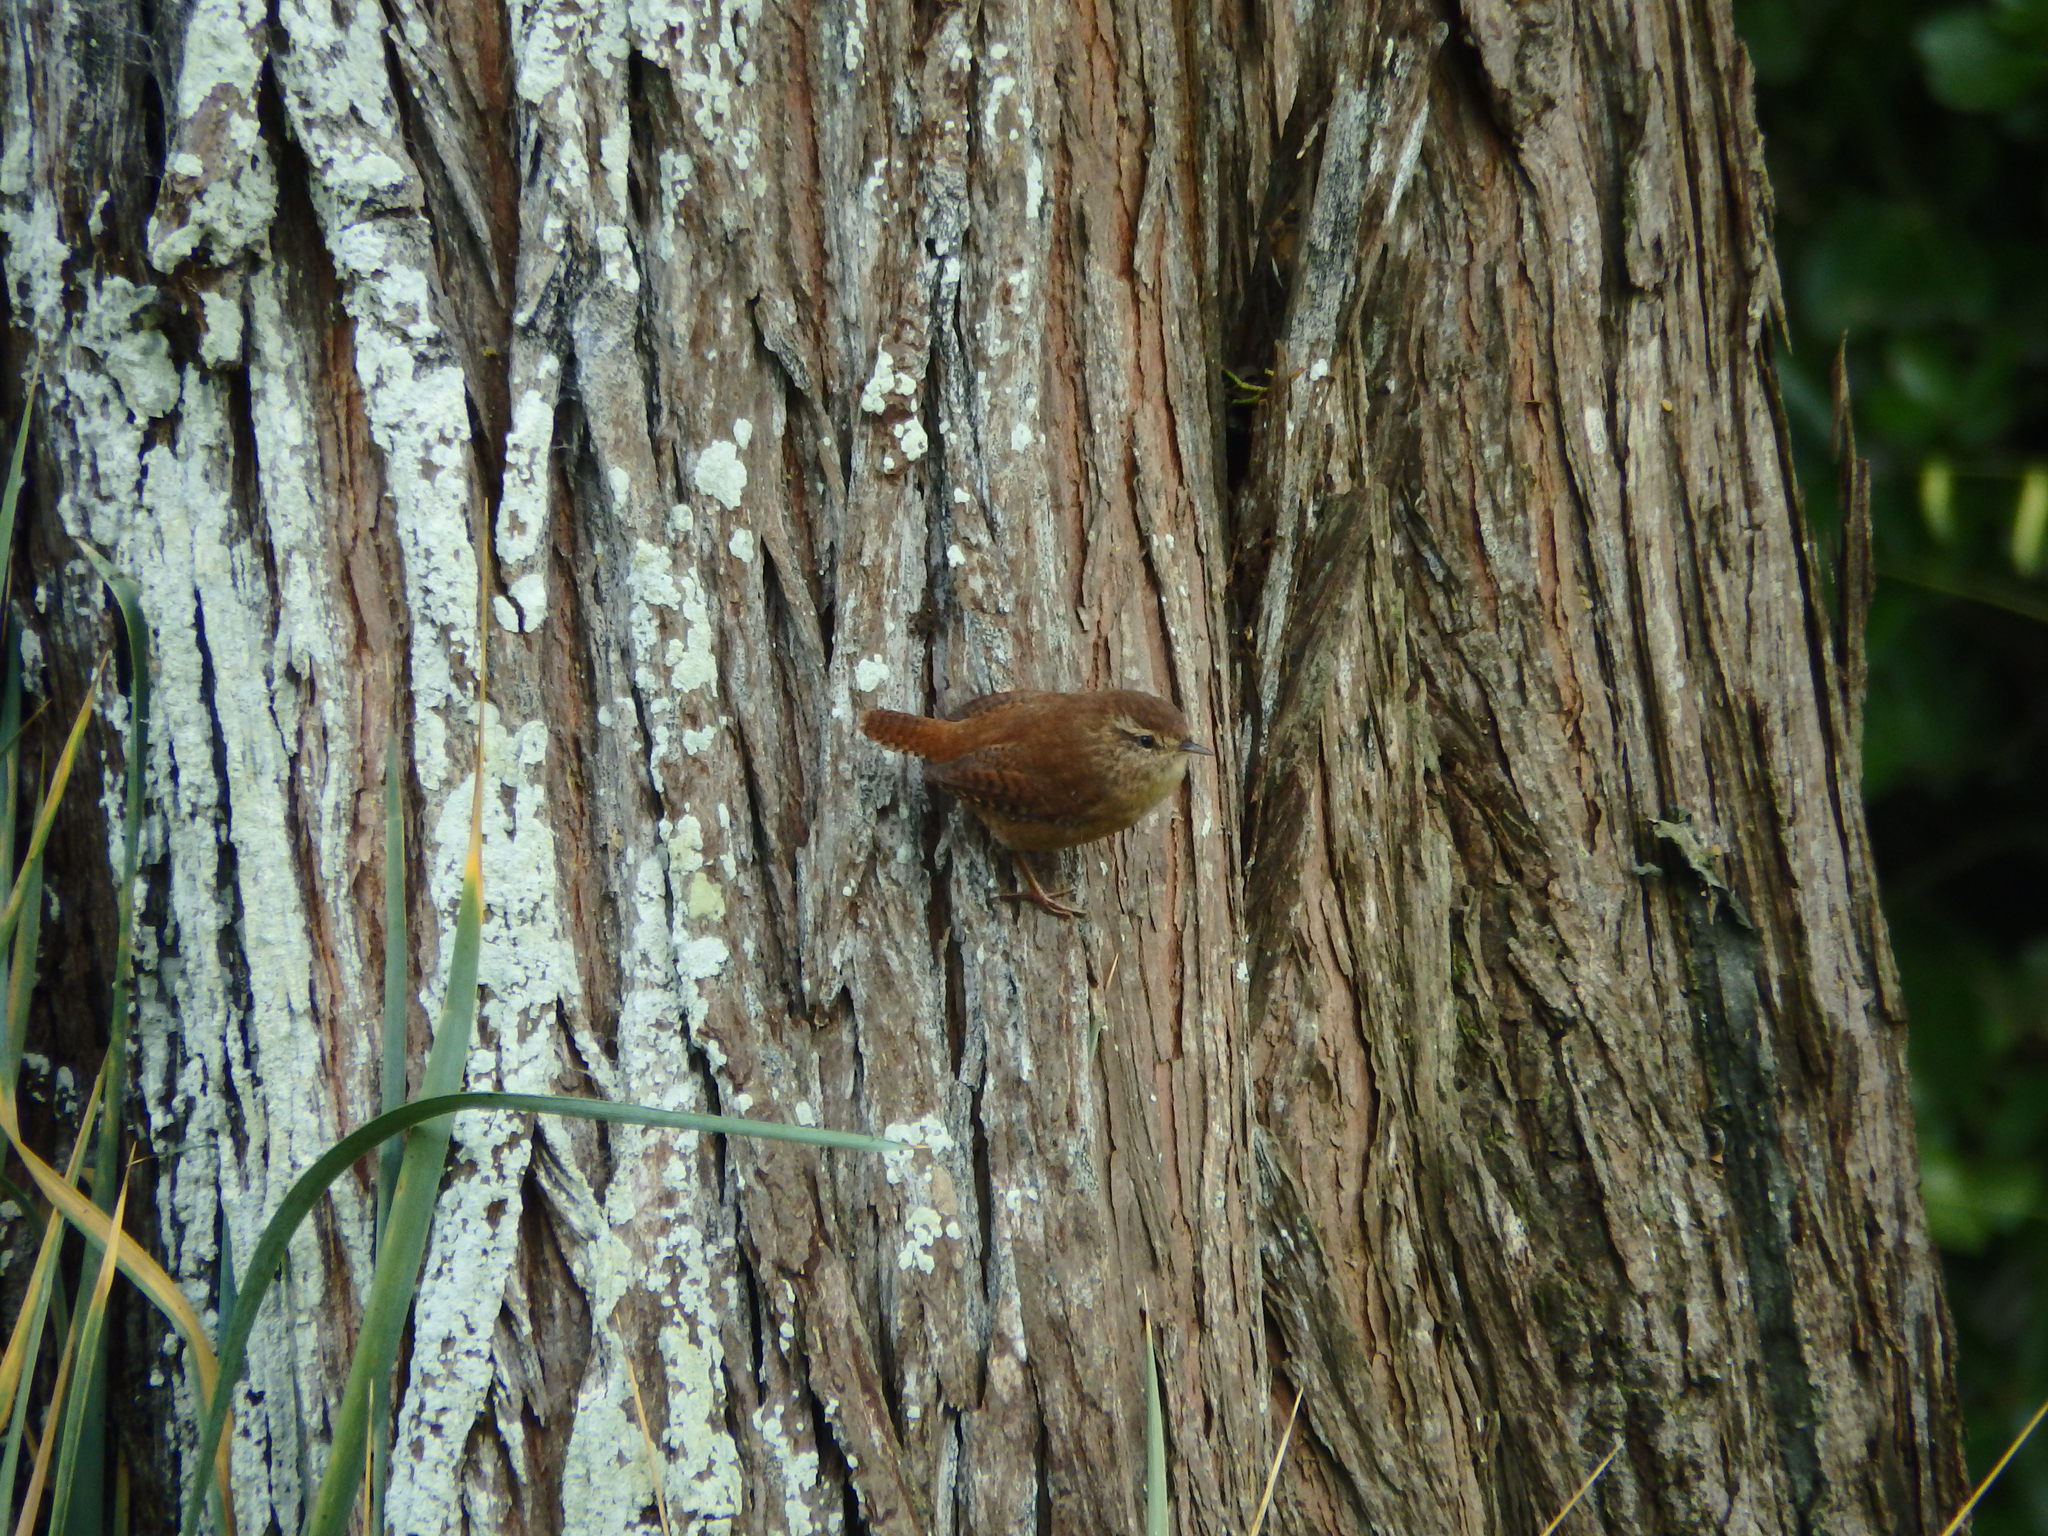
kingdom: Animalia
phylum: Chordata
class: Aves
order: Passeriformes
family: Troglodytidae
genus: Troglodytes
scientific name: Troglodytes troglodytes
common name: Eurasian wren
